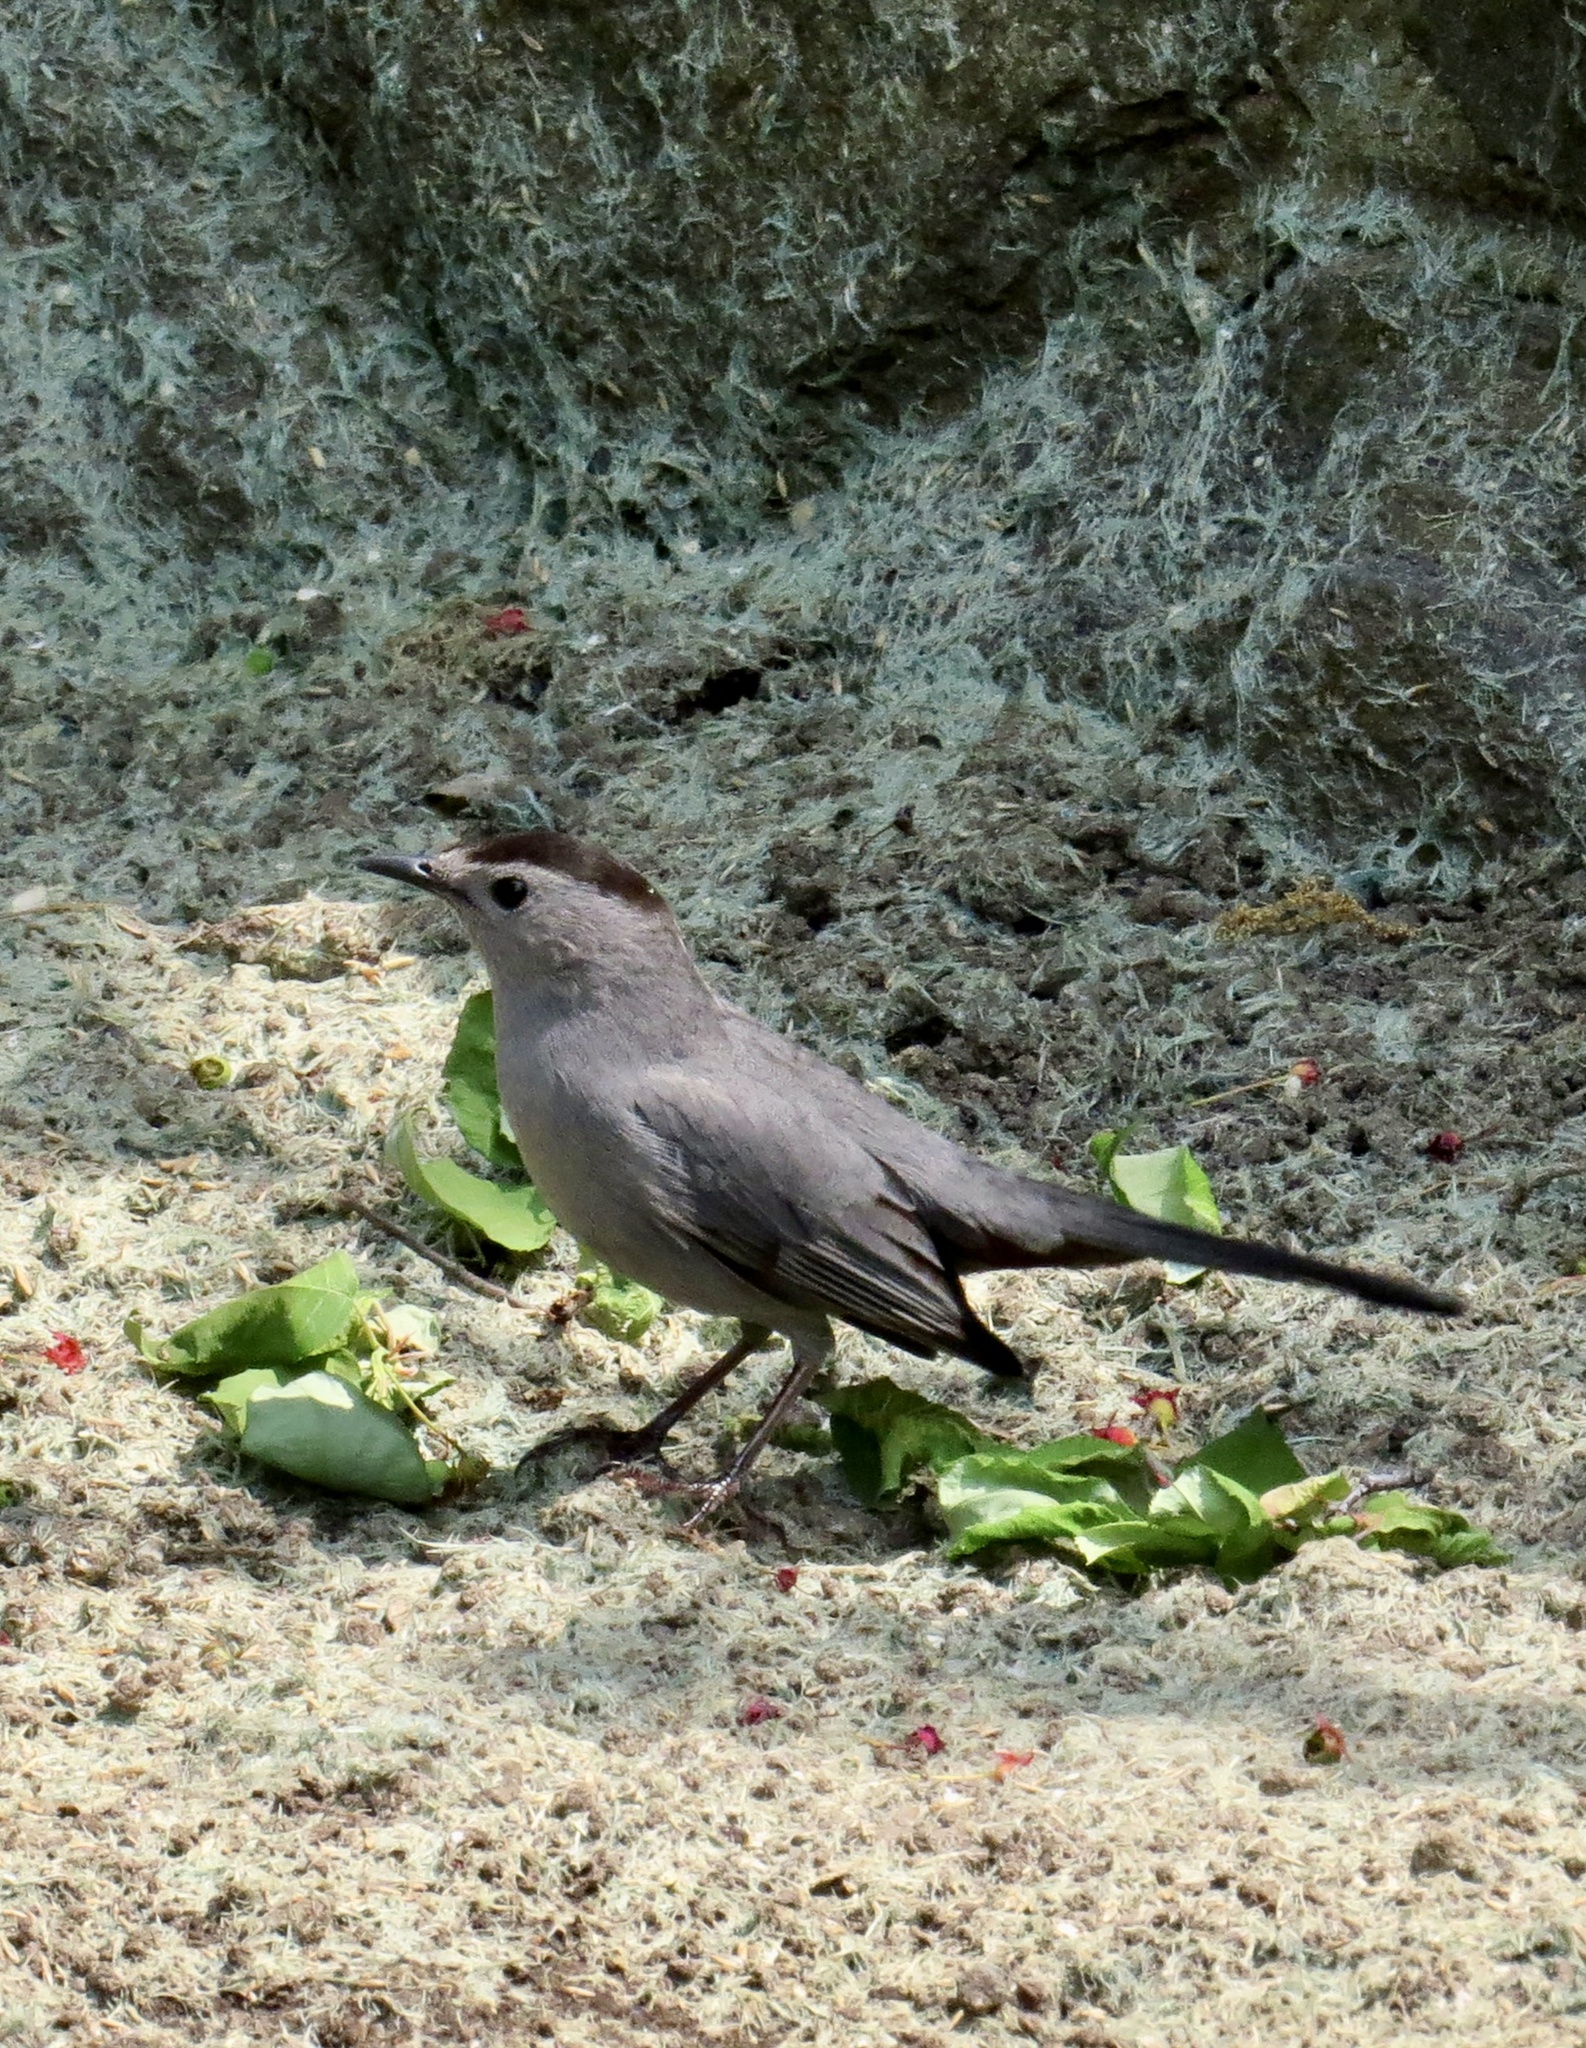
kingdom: Animalia
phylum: Chordata
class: Aves
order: Passeriformes
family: Mimidae
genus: Dumetella
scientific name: Dumetella carolinensis
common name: Gray catbird
